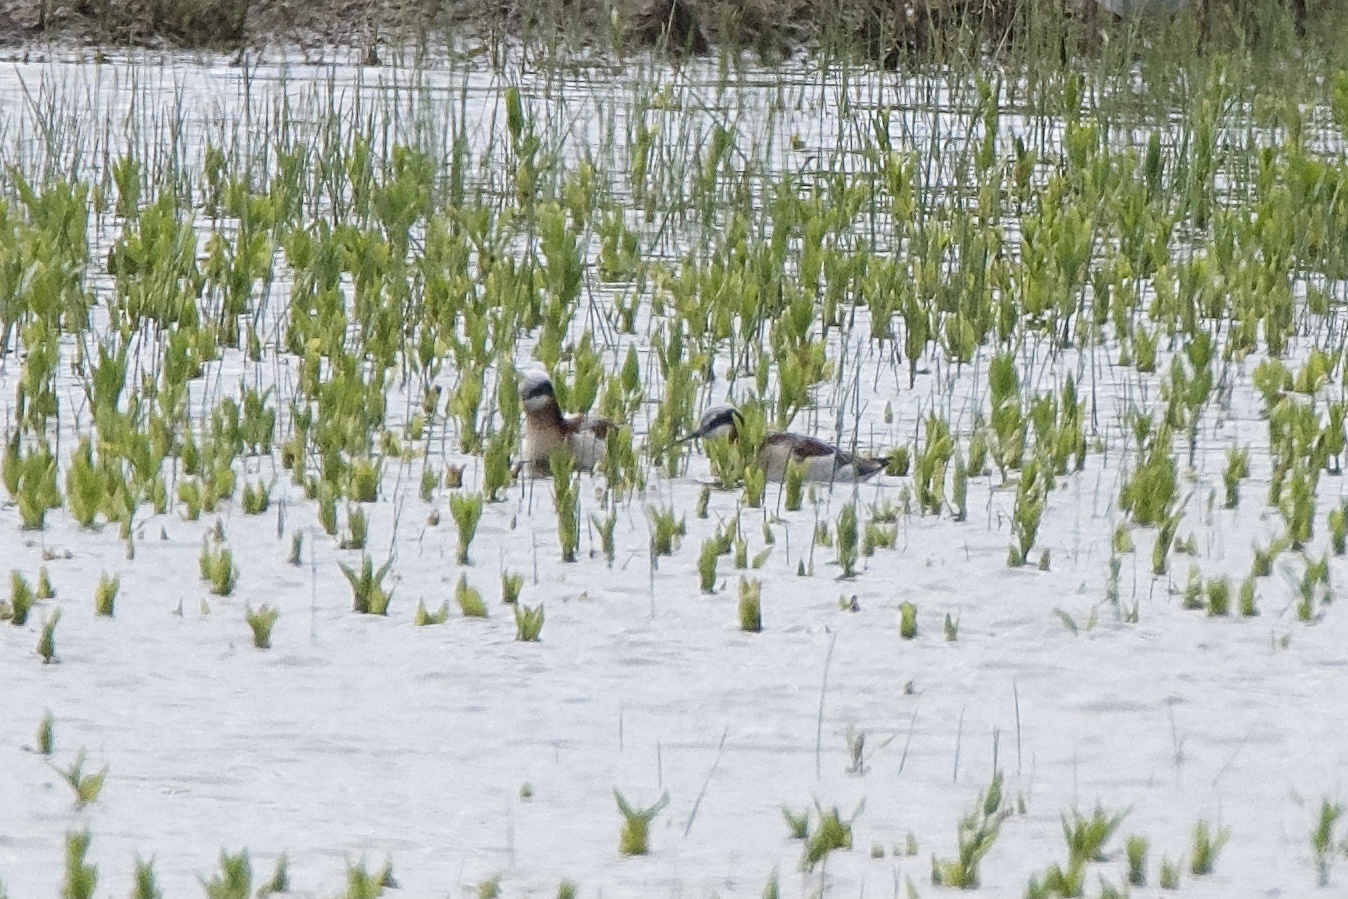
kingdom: Animalia
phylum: Chordata
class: Aves
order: Charadriiformes
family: Scolopacidae
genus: Phalaropus
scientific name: Phalaropus tricolor
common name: Wilson's phalarope
